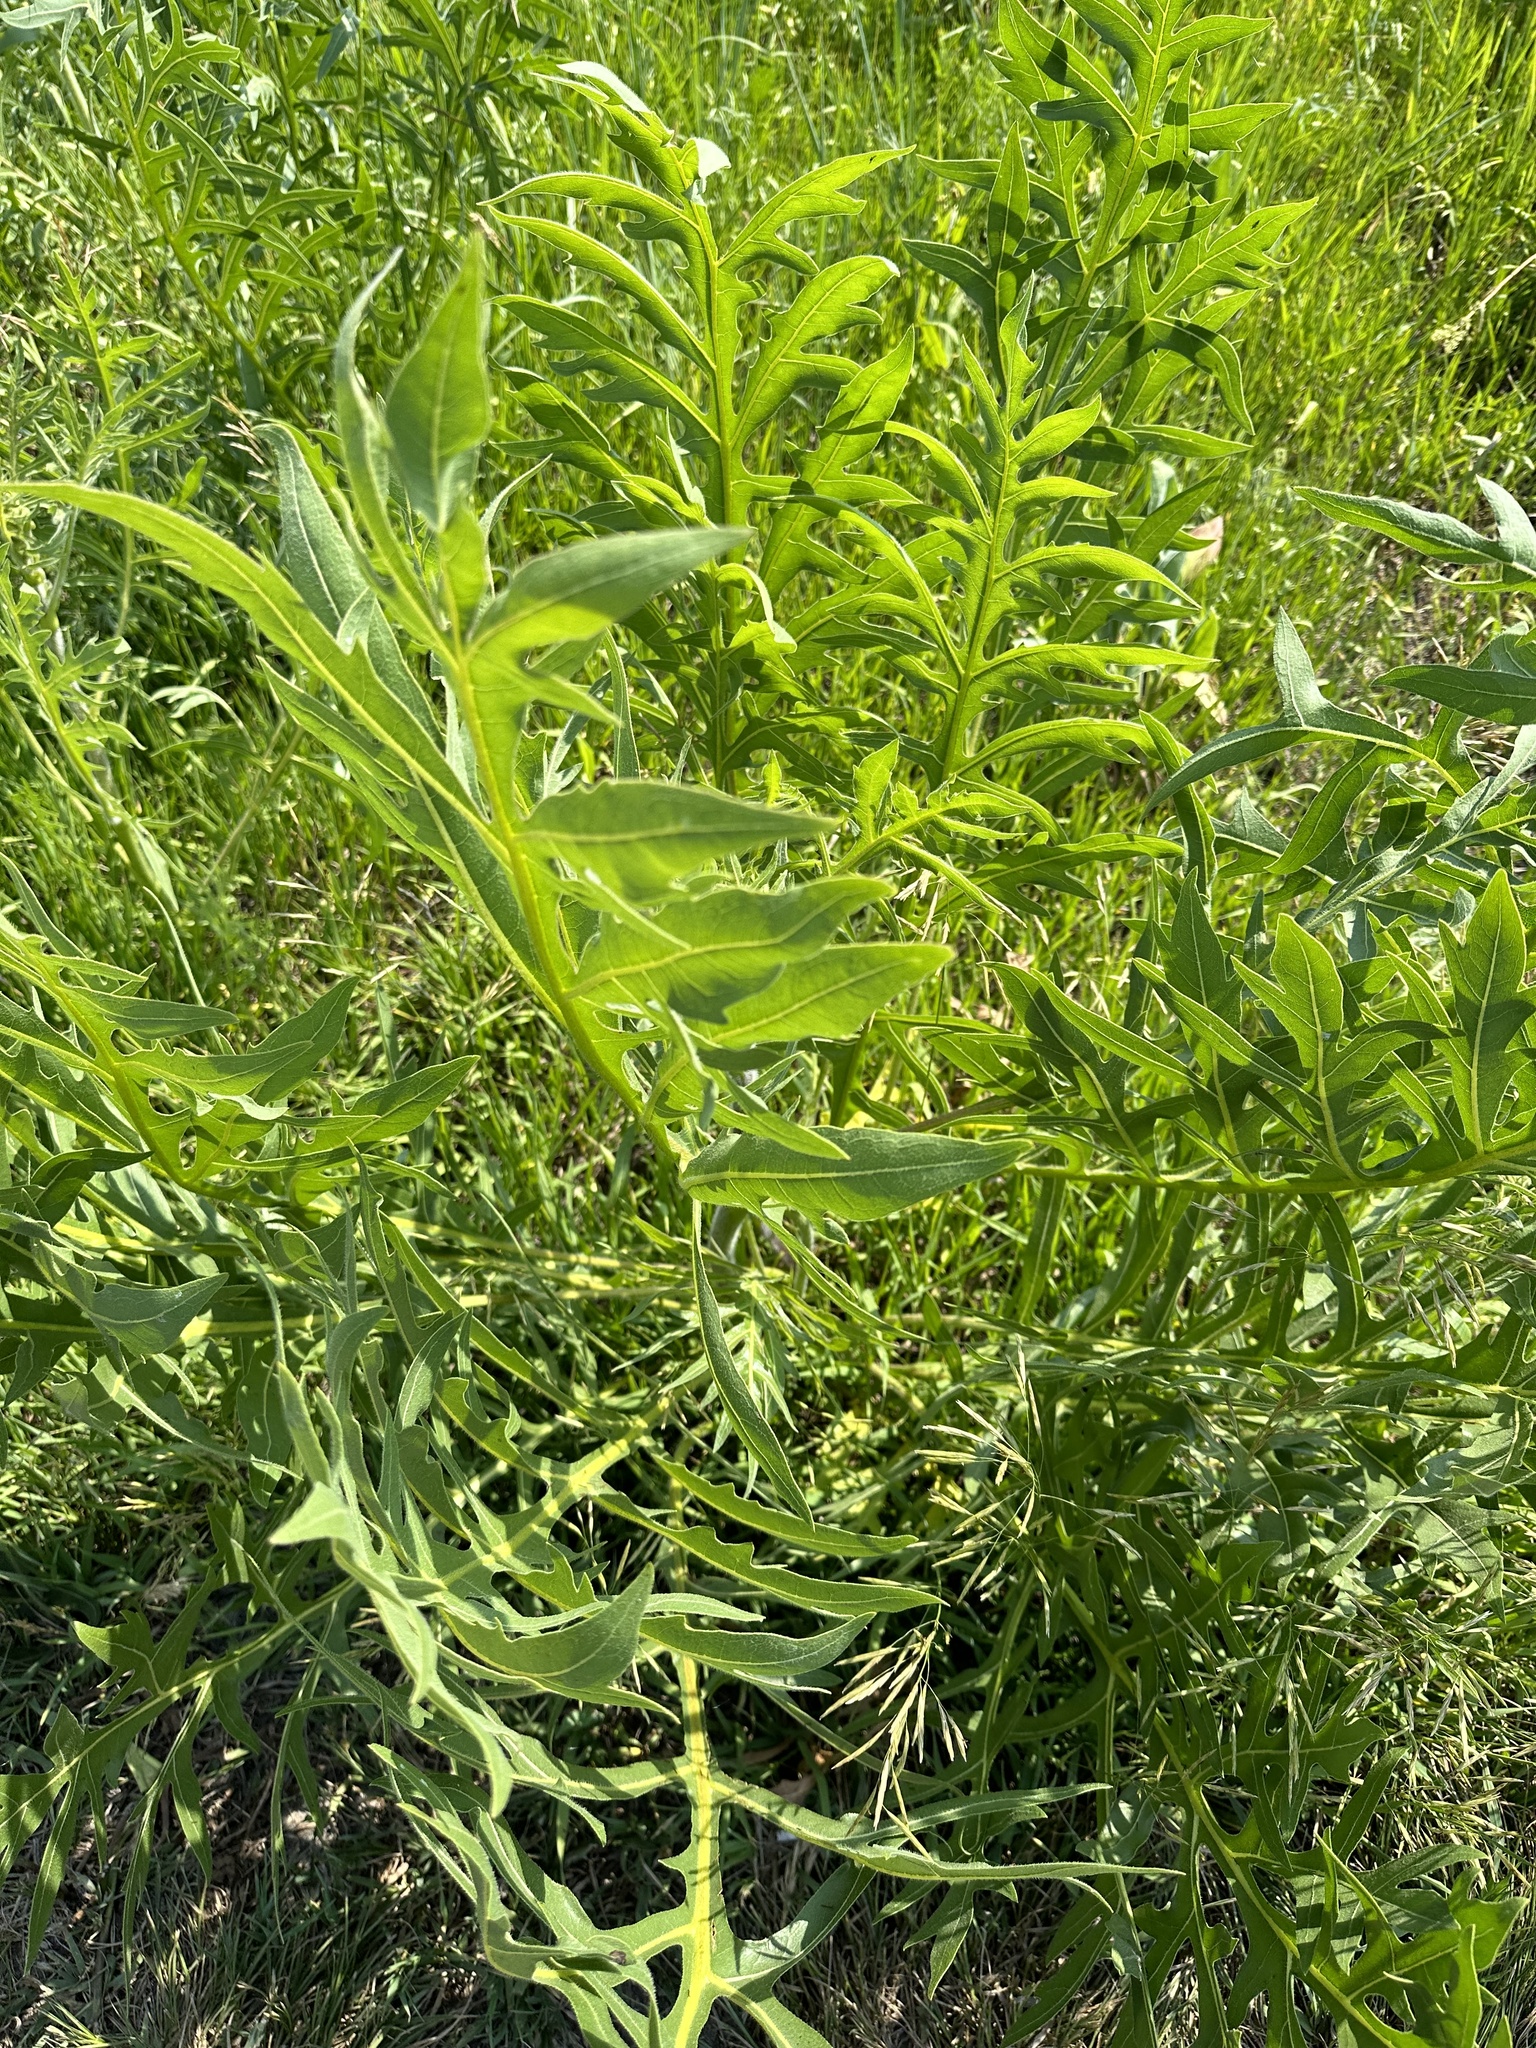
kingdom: Plantae
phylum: Tracheophyta
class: Magnoliopsida
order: Asterales
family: Asteraceae
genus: Silphium
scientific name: Silphium laciniatum
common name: Polarplant
